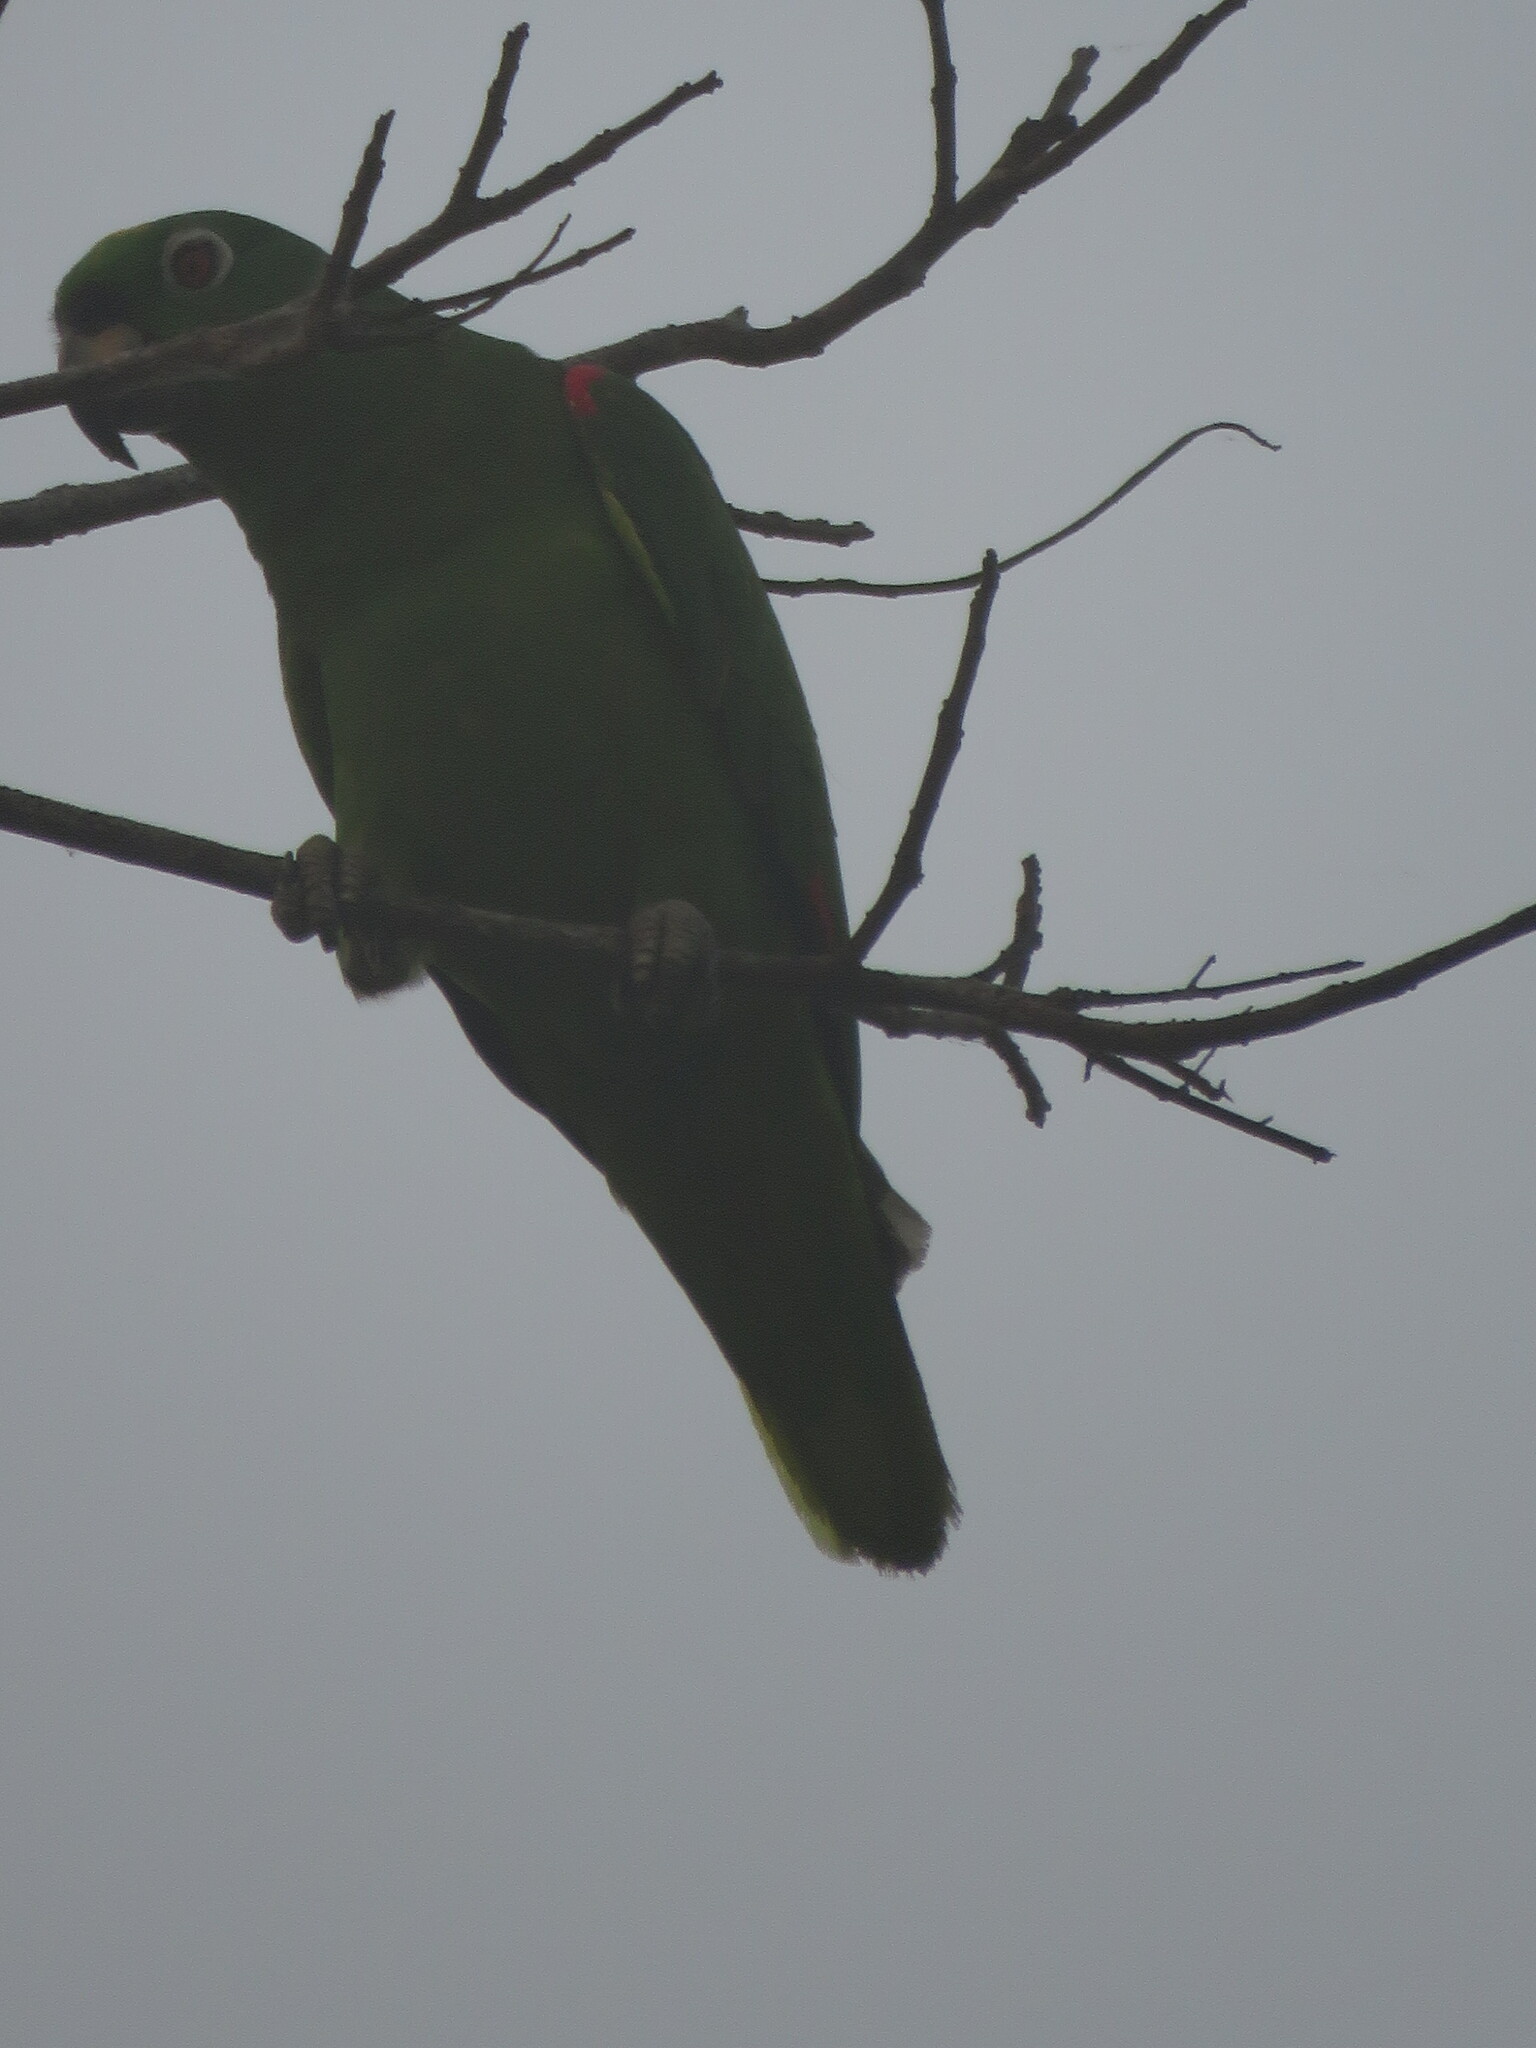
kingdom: Animalia
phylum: Chordata
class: Aves
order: Psittaciformes
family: Psittacidae
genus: Amazona
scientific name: Amazona ochrocephala
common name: Yellow-crowned amazon
